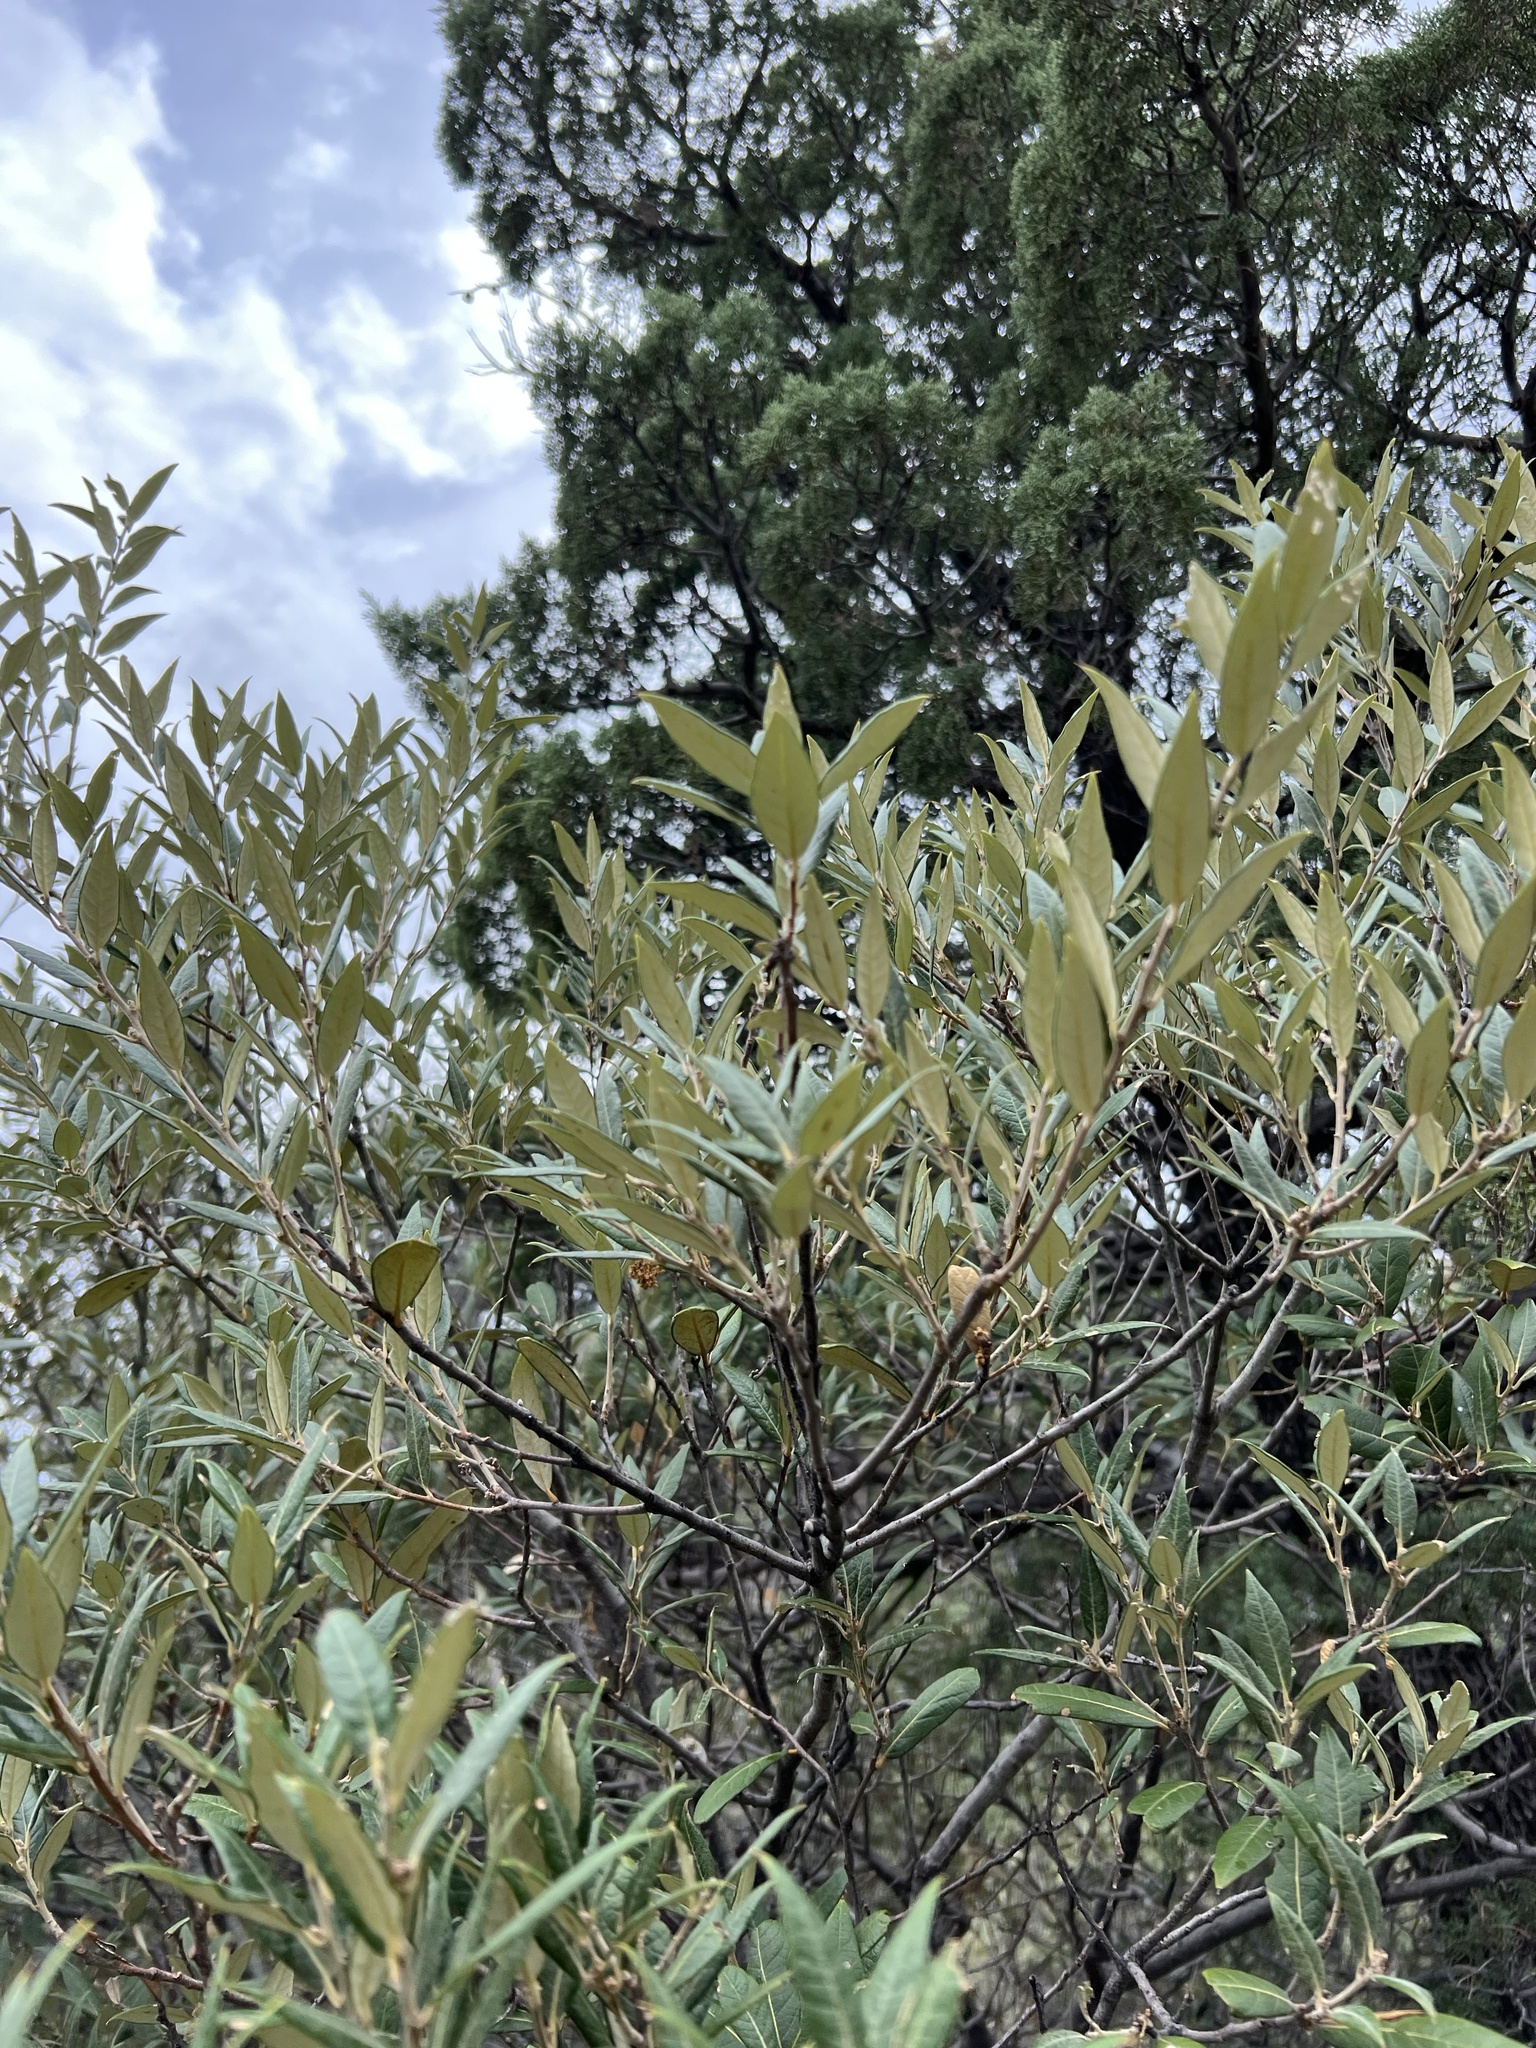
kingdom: Plantae
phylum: Tracheophyta
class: Magnoliopsida
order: Fagales
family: Fagaceae
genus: Quercus
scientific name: Quercus hypoleucoides
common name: Silverleaf oak
